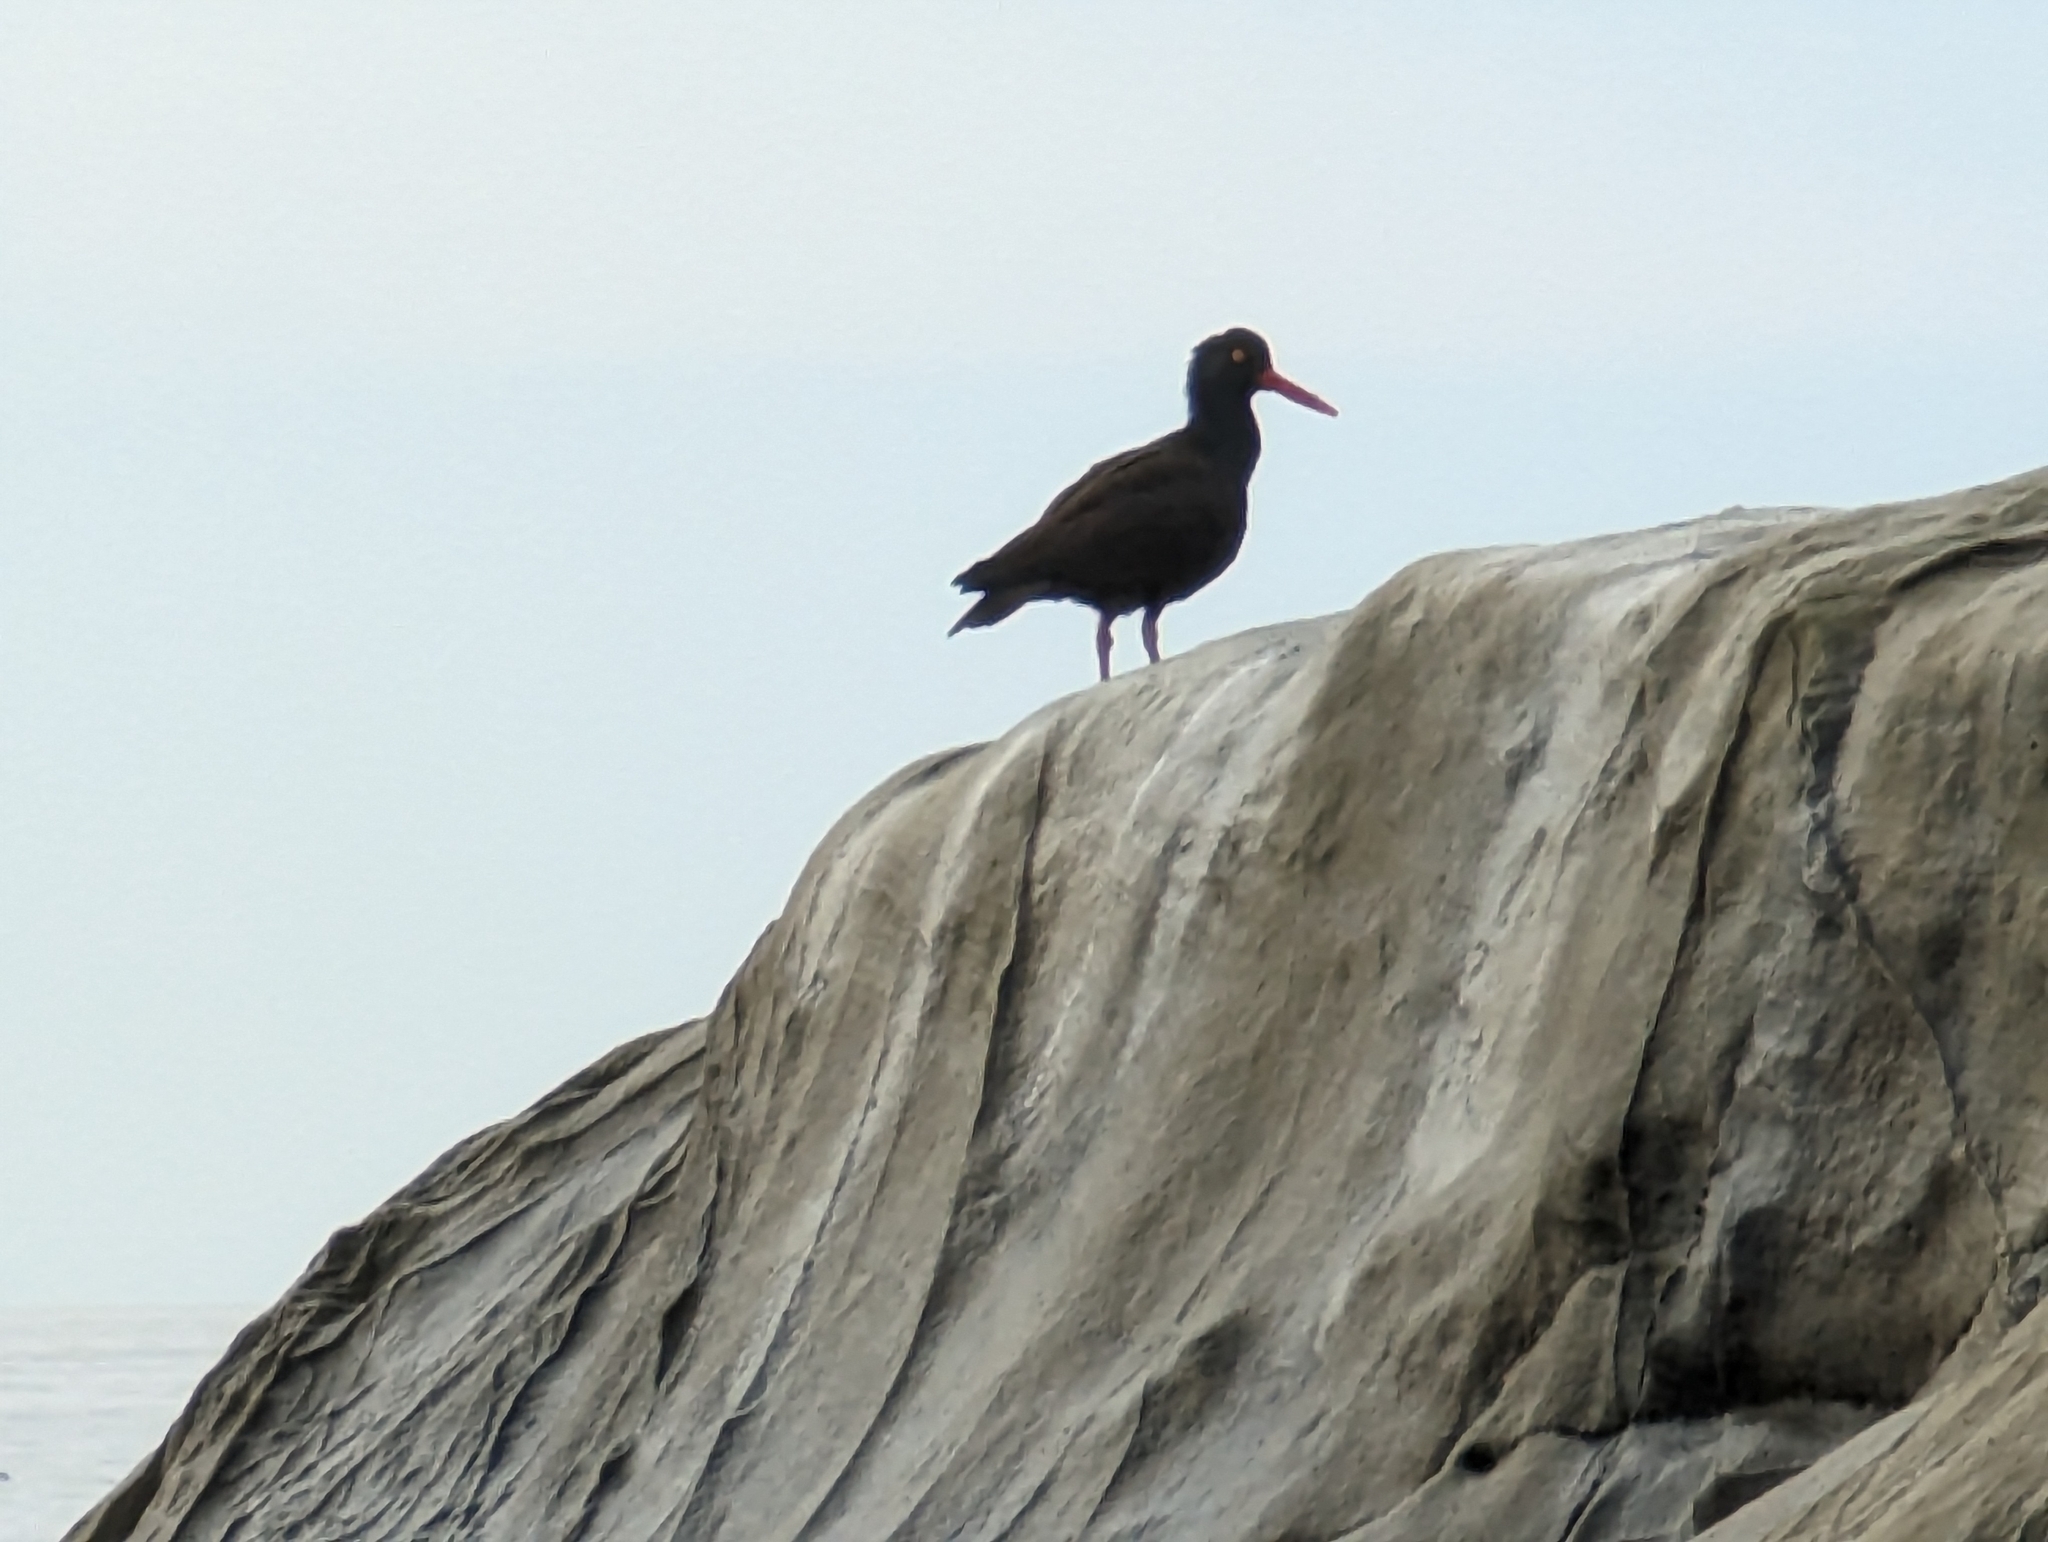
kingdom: Animalia
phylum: Chordata
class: Aves
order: Charadriiformes
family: Haematopodidae
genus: Haematopus
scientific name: Haematopus bachmani
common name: Black oystercatcher
